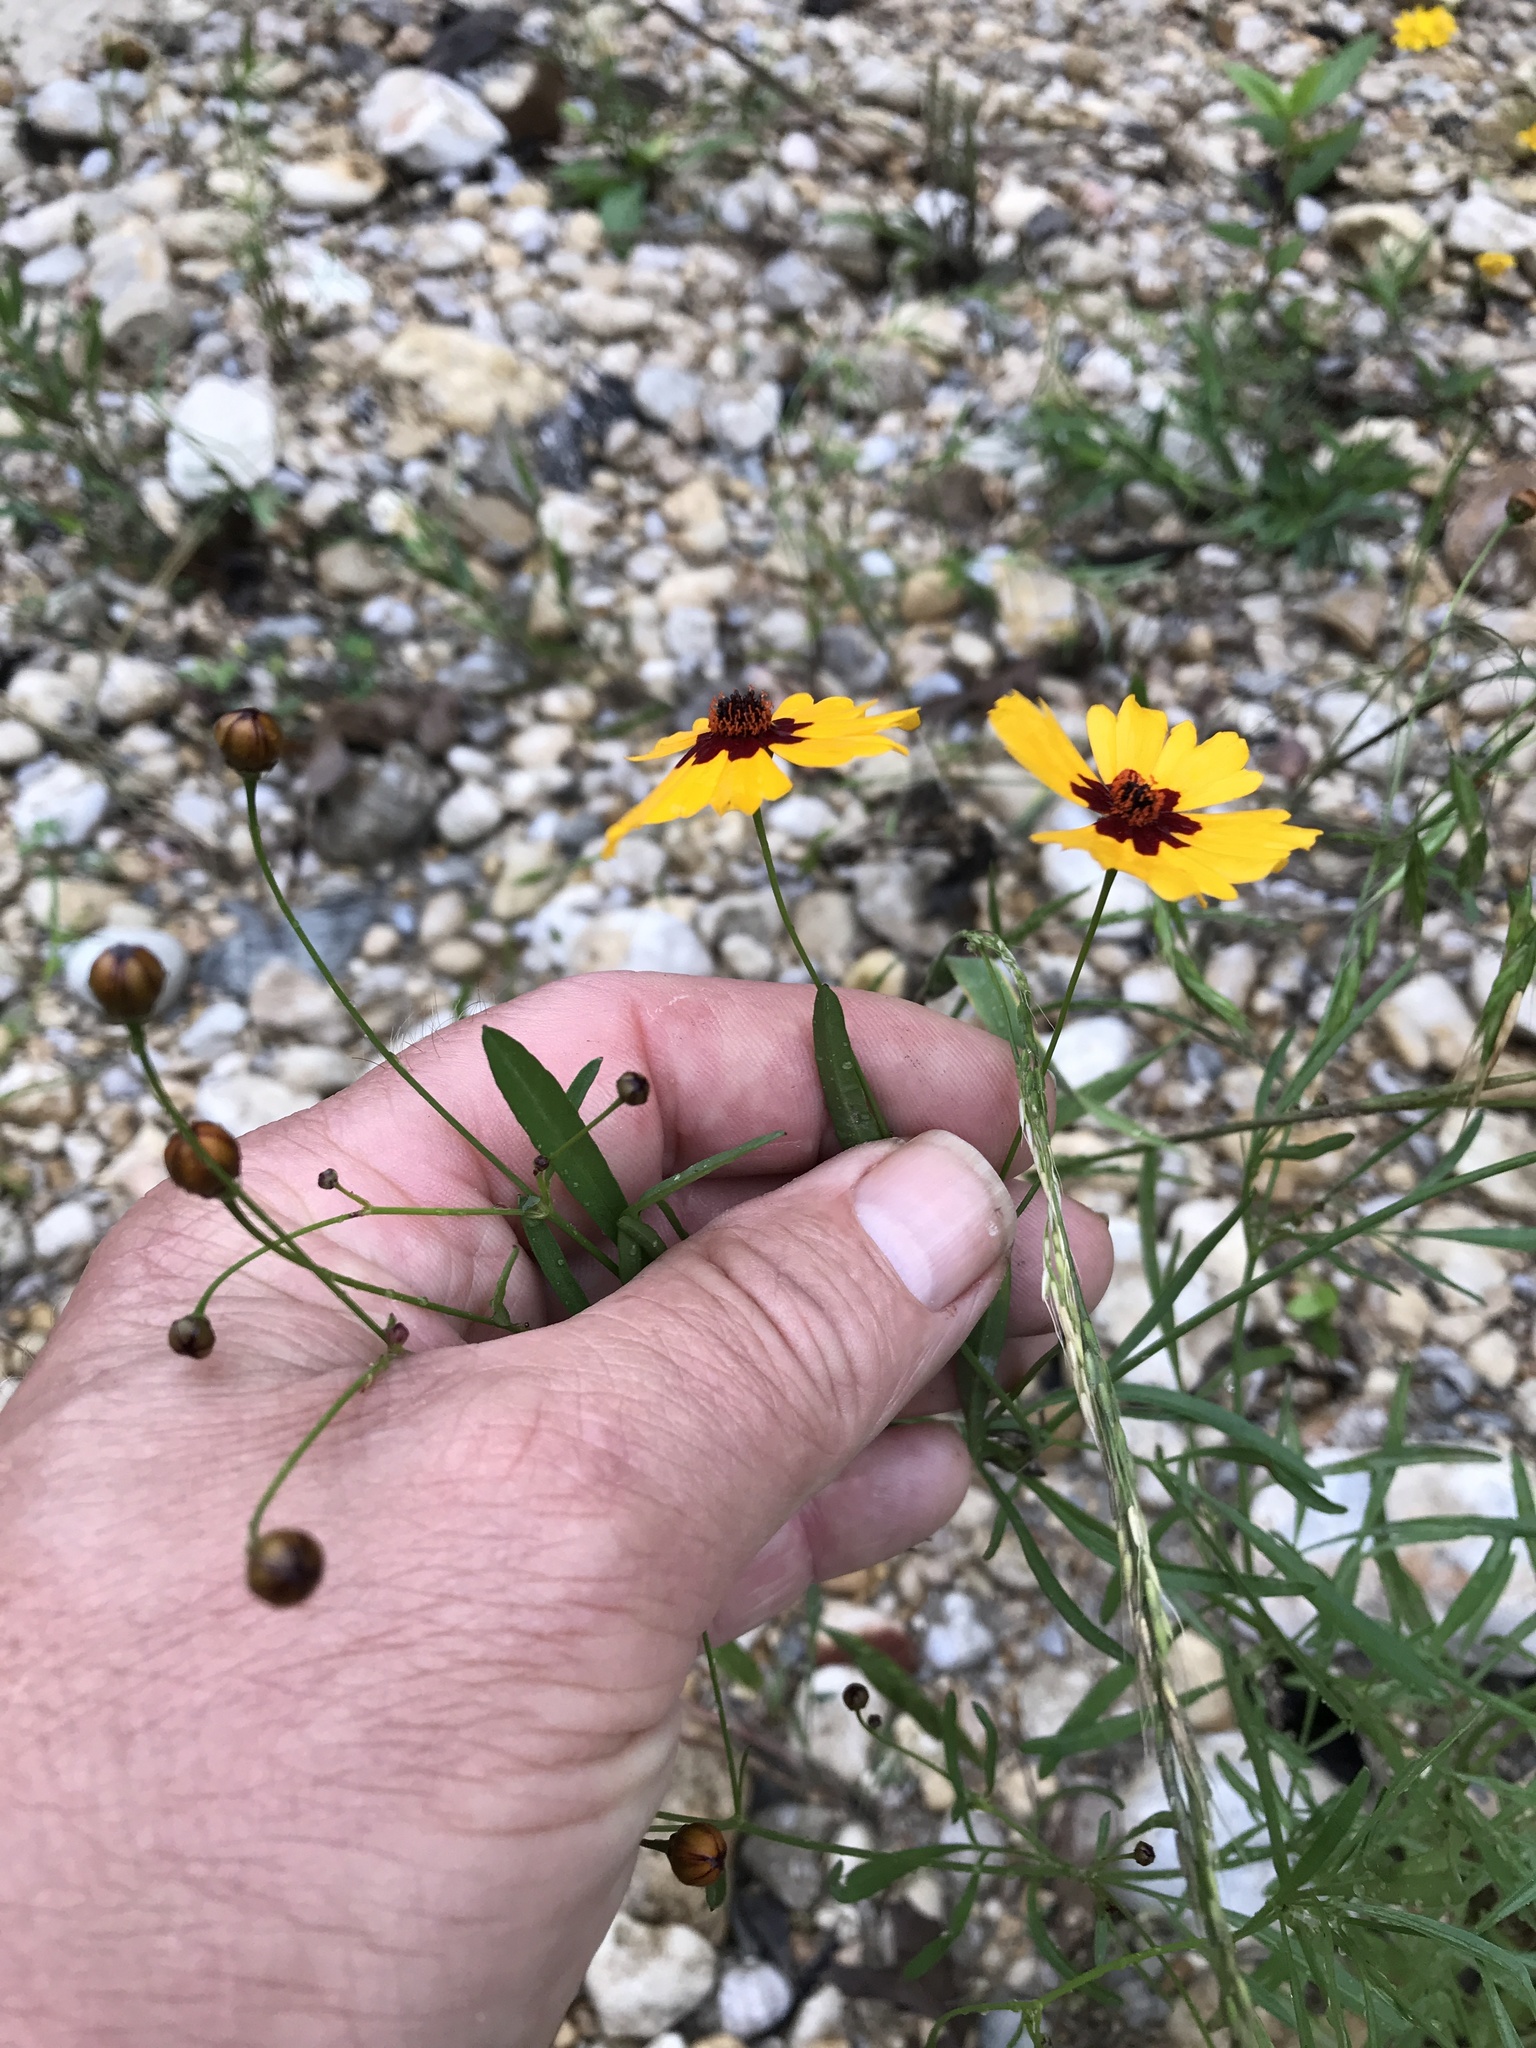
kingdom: Plantae
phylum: Tracheophyta
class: Magnoliopsida
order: Asterales
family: Asteraceae
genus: Coreopsis
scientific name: Coreopsis tinctoria
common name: Garden tickseed
